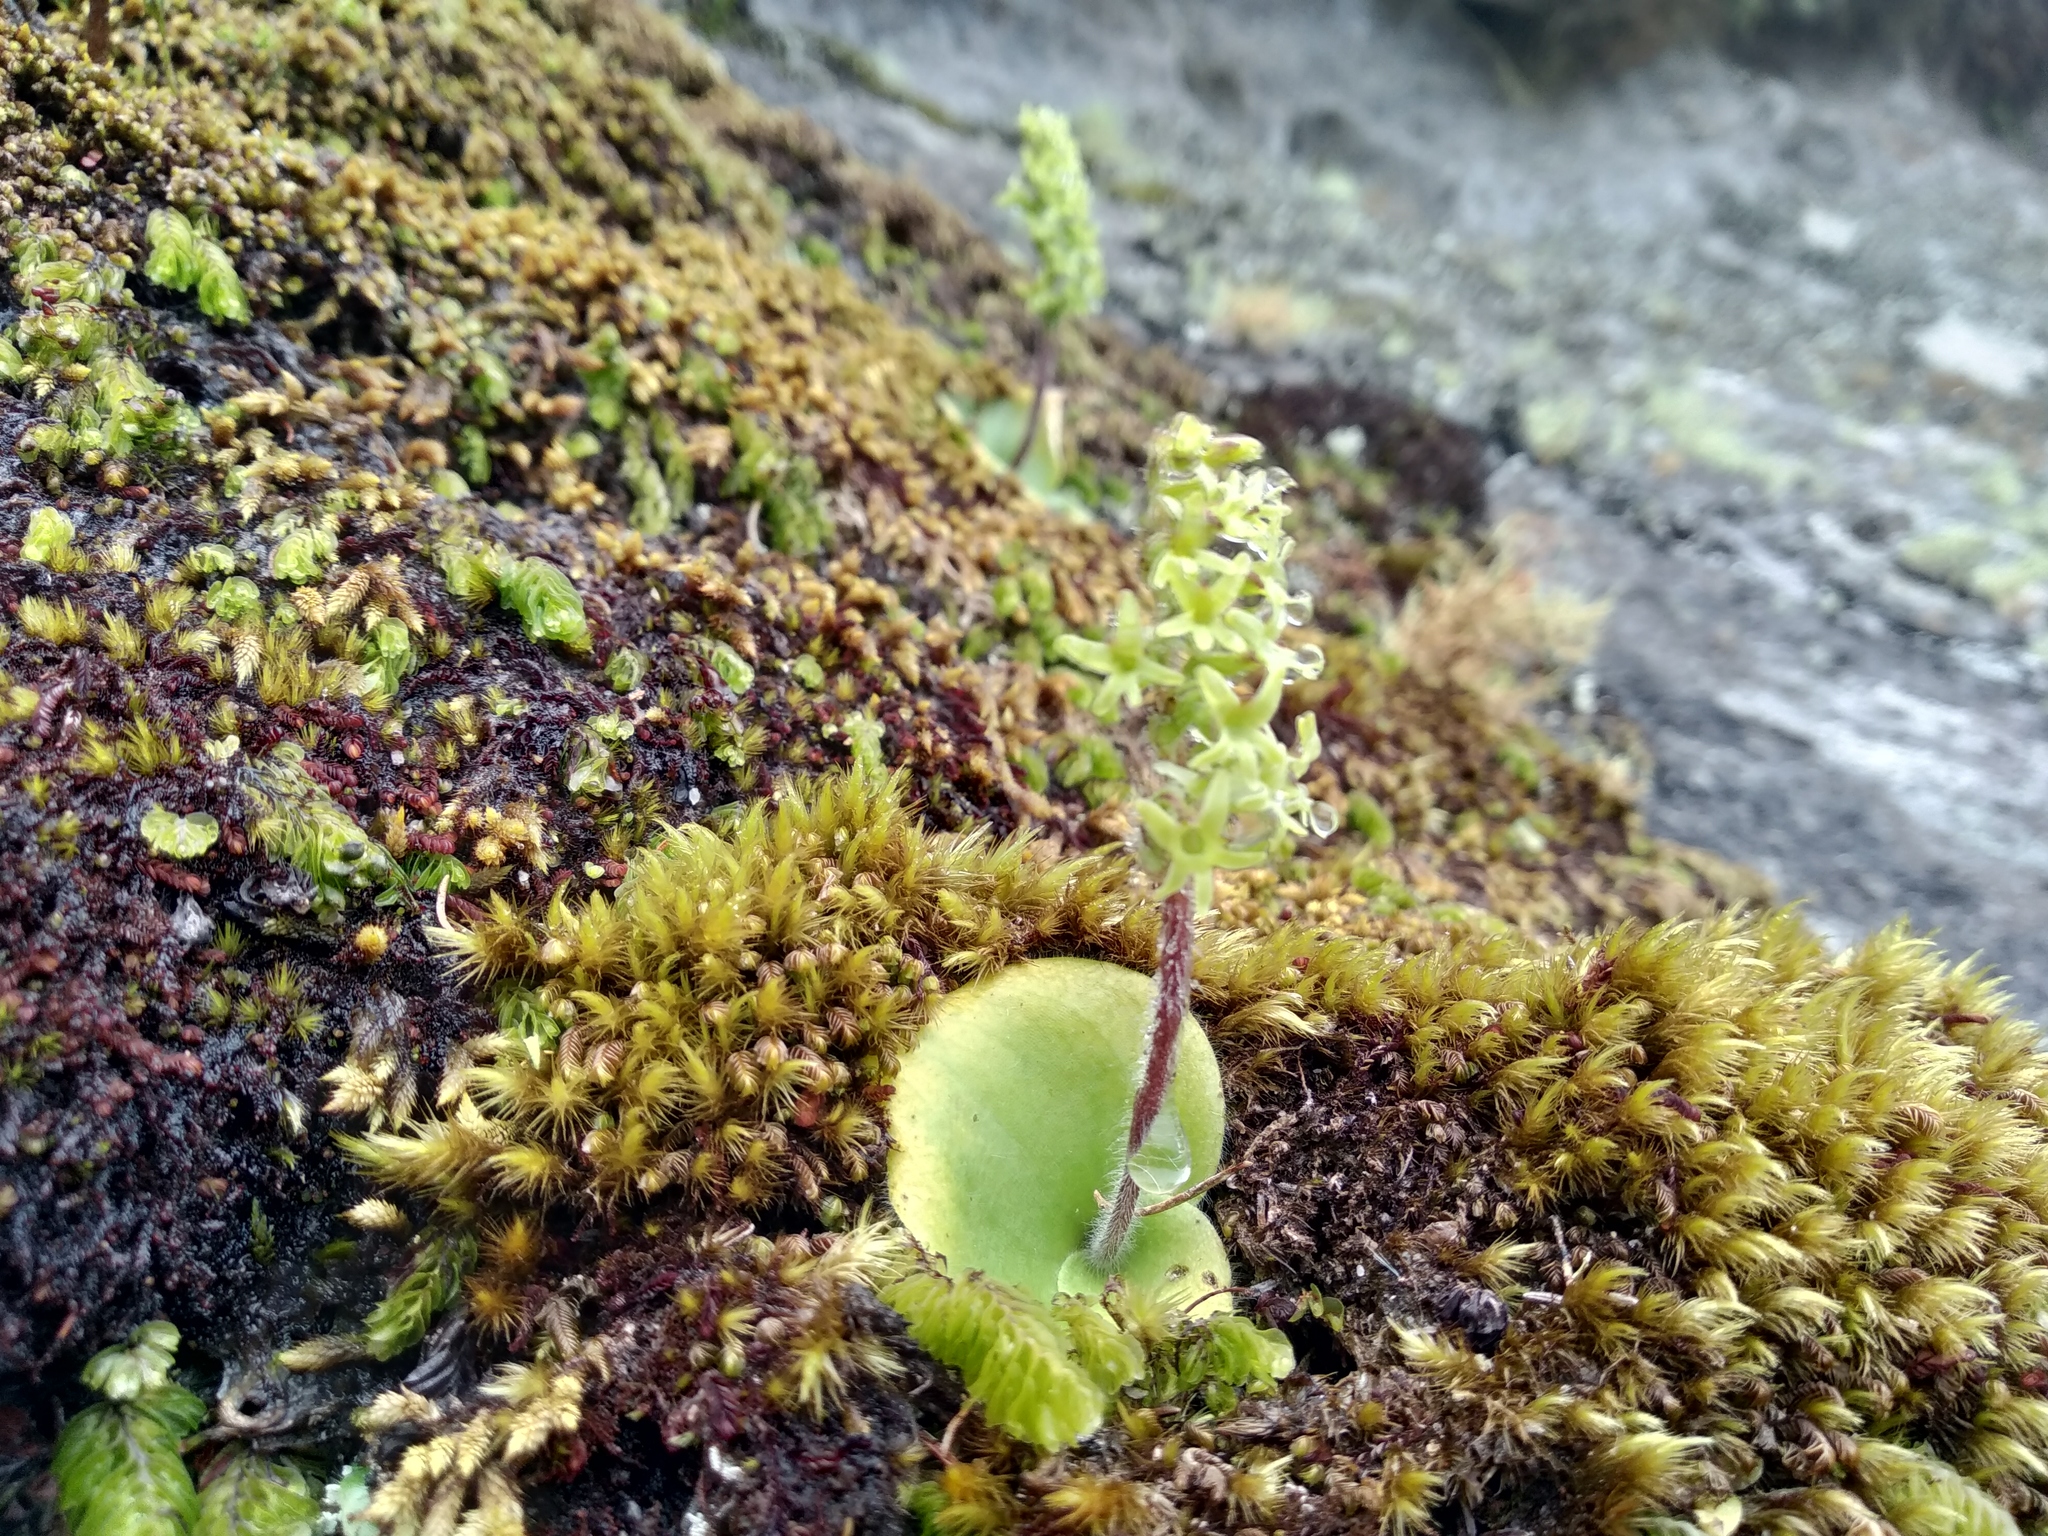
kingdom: Plantae
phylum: Tracheophyta
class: Liliopsida
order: Asparagales
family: Orchidaceae
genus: Holothrix
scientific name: Holothrix condensata
